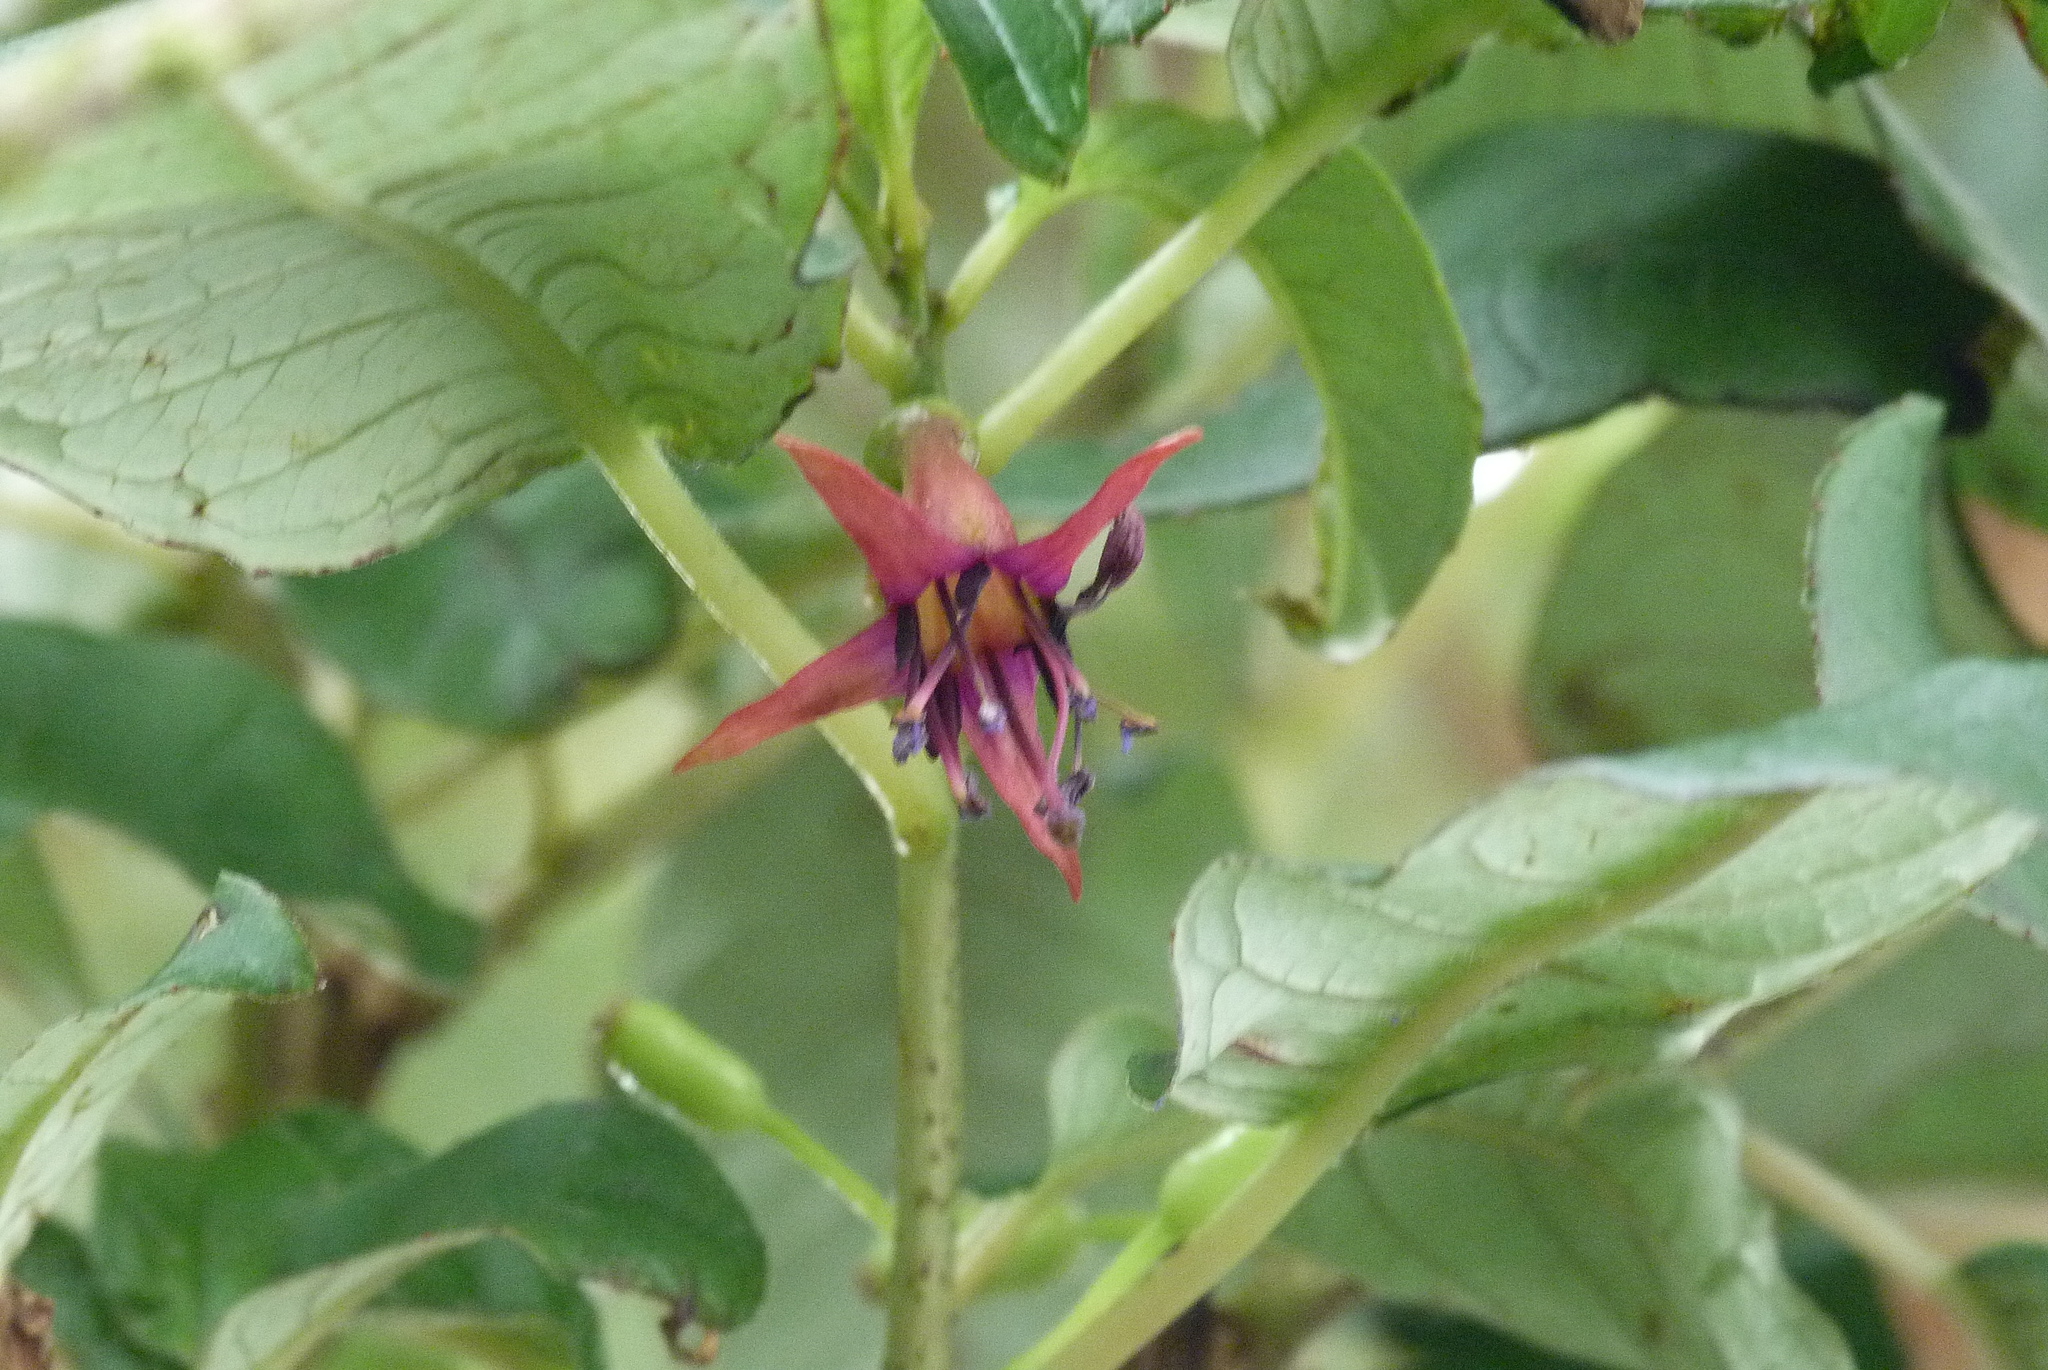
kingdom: Plantae
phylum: Tracheophyta
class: Magnoliopsida
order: Myrtales
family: Onagraceae
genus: Fuchsia
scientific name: Fuchsia excorticata
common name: Tree fuchsia
